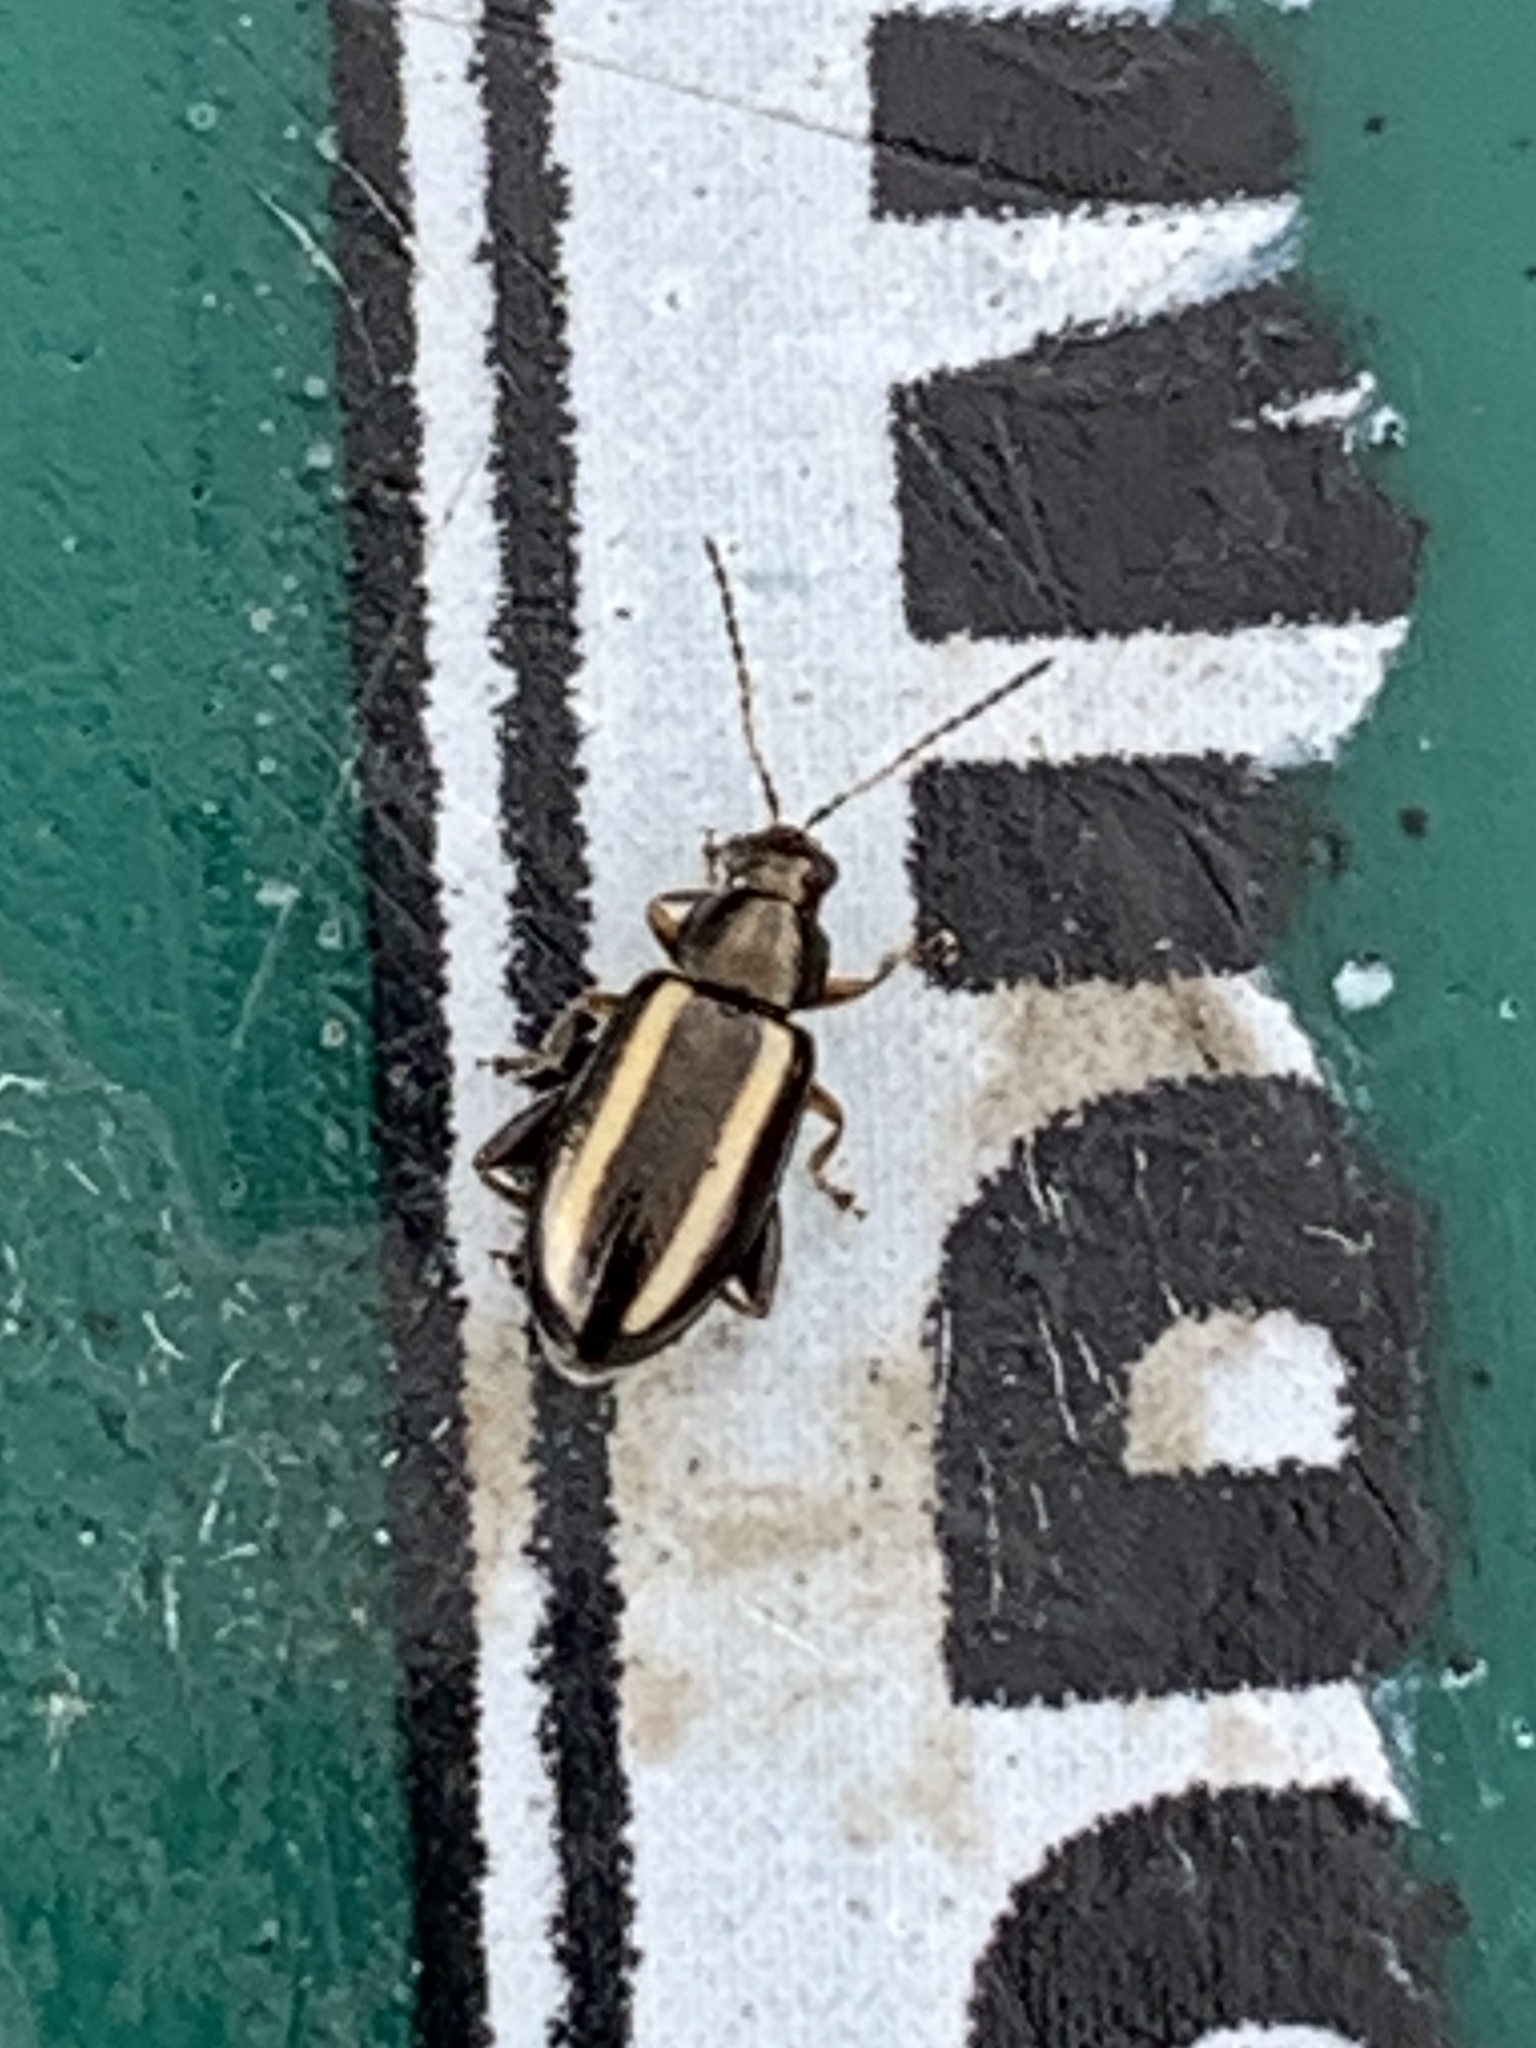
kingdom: Animalia
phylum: Arthropoda
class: Insecta
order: Coleoptera
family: Chrysomelidae
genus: Systena
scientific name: Systena elongata
